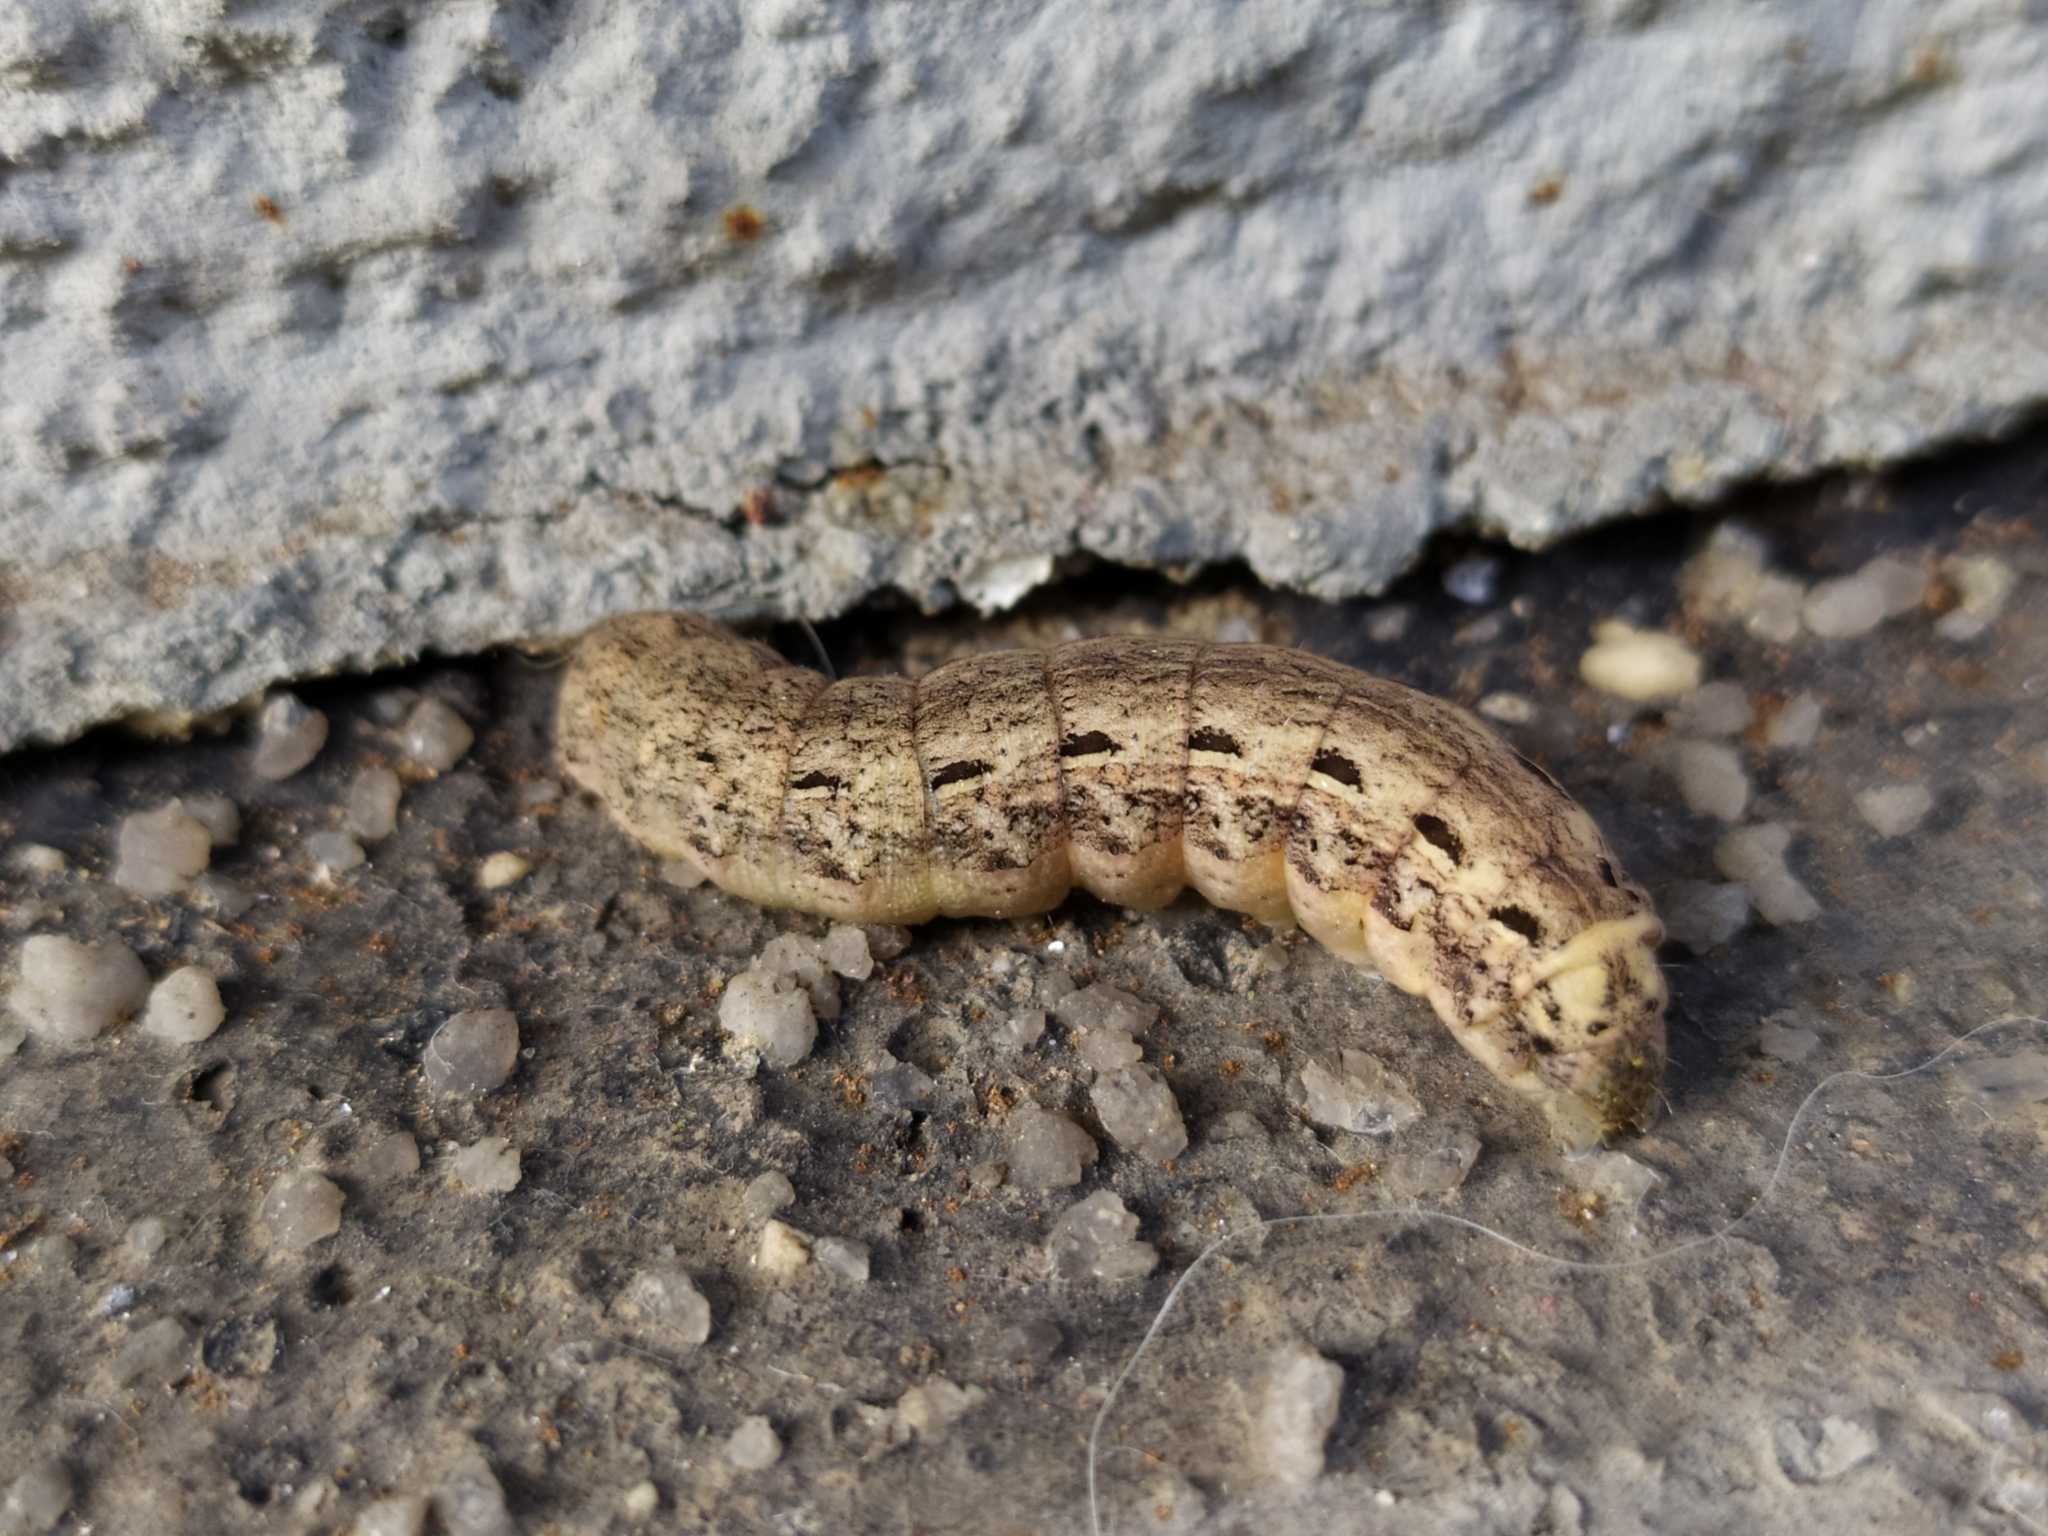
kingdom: Animalia
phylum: Arthropoda
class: Insecta
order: Lepidoptera
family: Noctuidae
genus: Noctua
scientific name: Noctua pronuba
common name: Large yellow underwing
